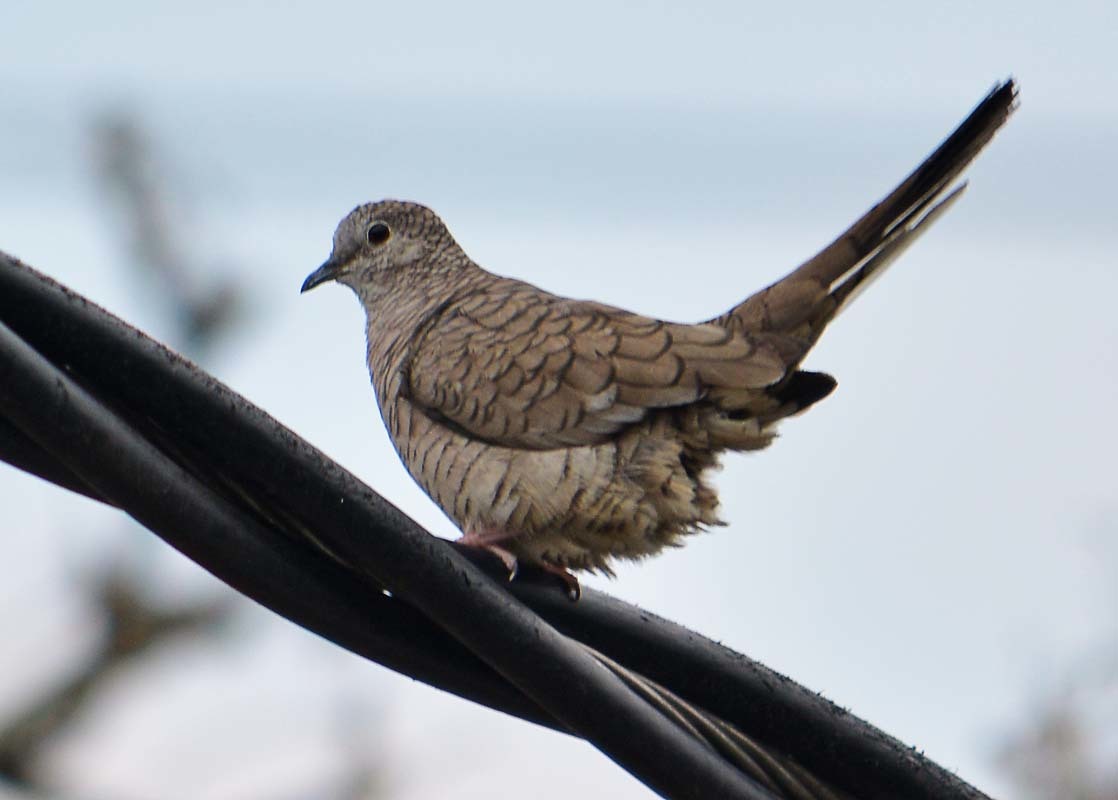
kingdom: Animalia
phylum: Chordata
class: Aves
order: Columbiformes
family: Columbidae
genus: Columbina
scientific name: Columbina inca
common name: Inca dove
